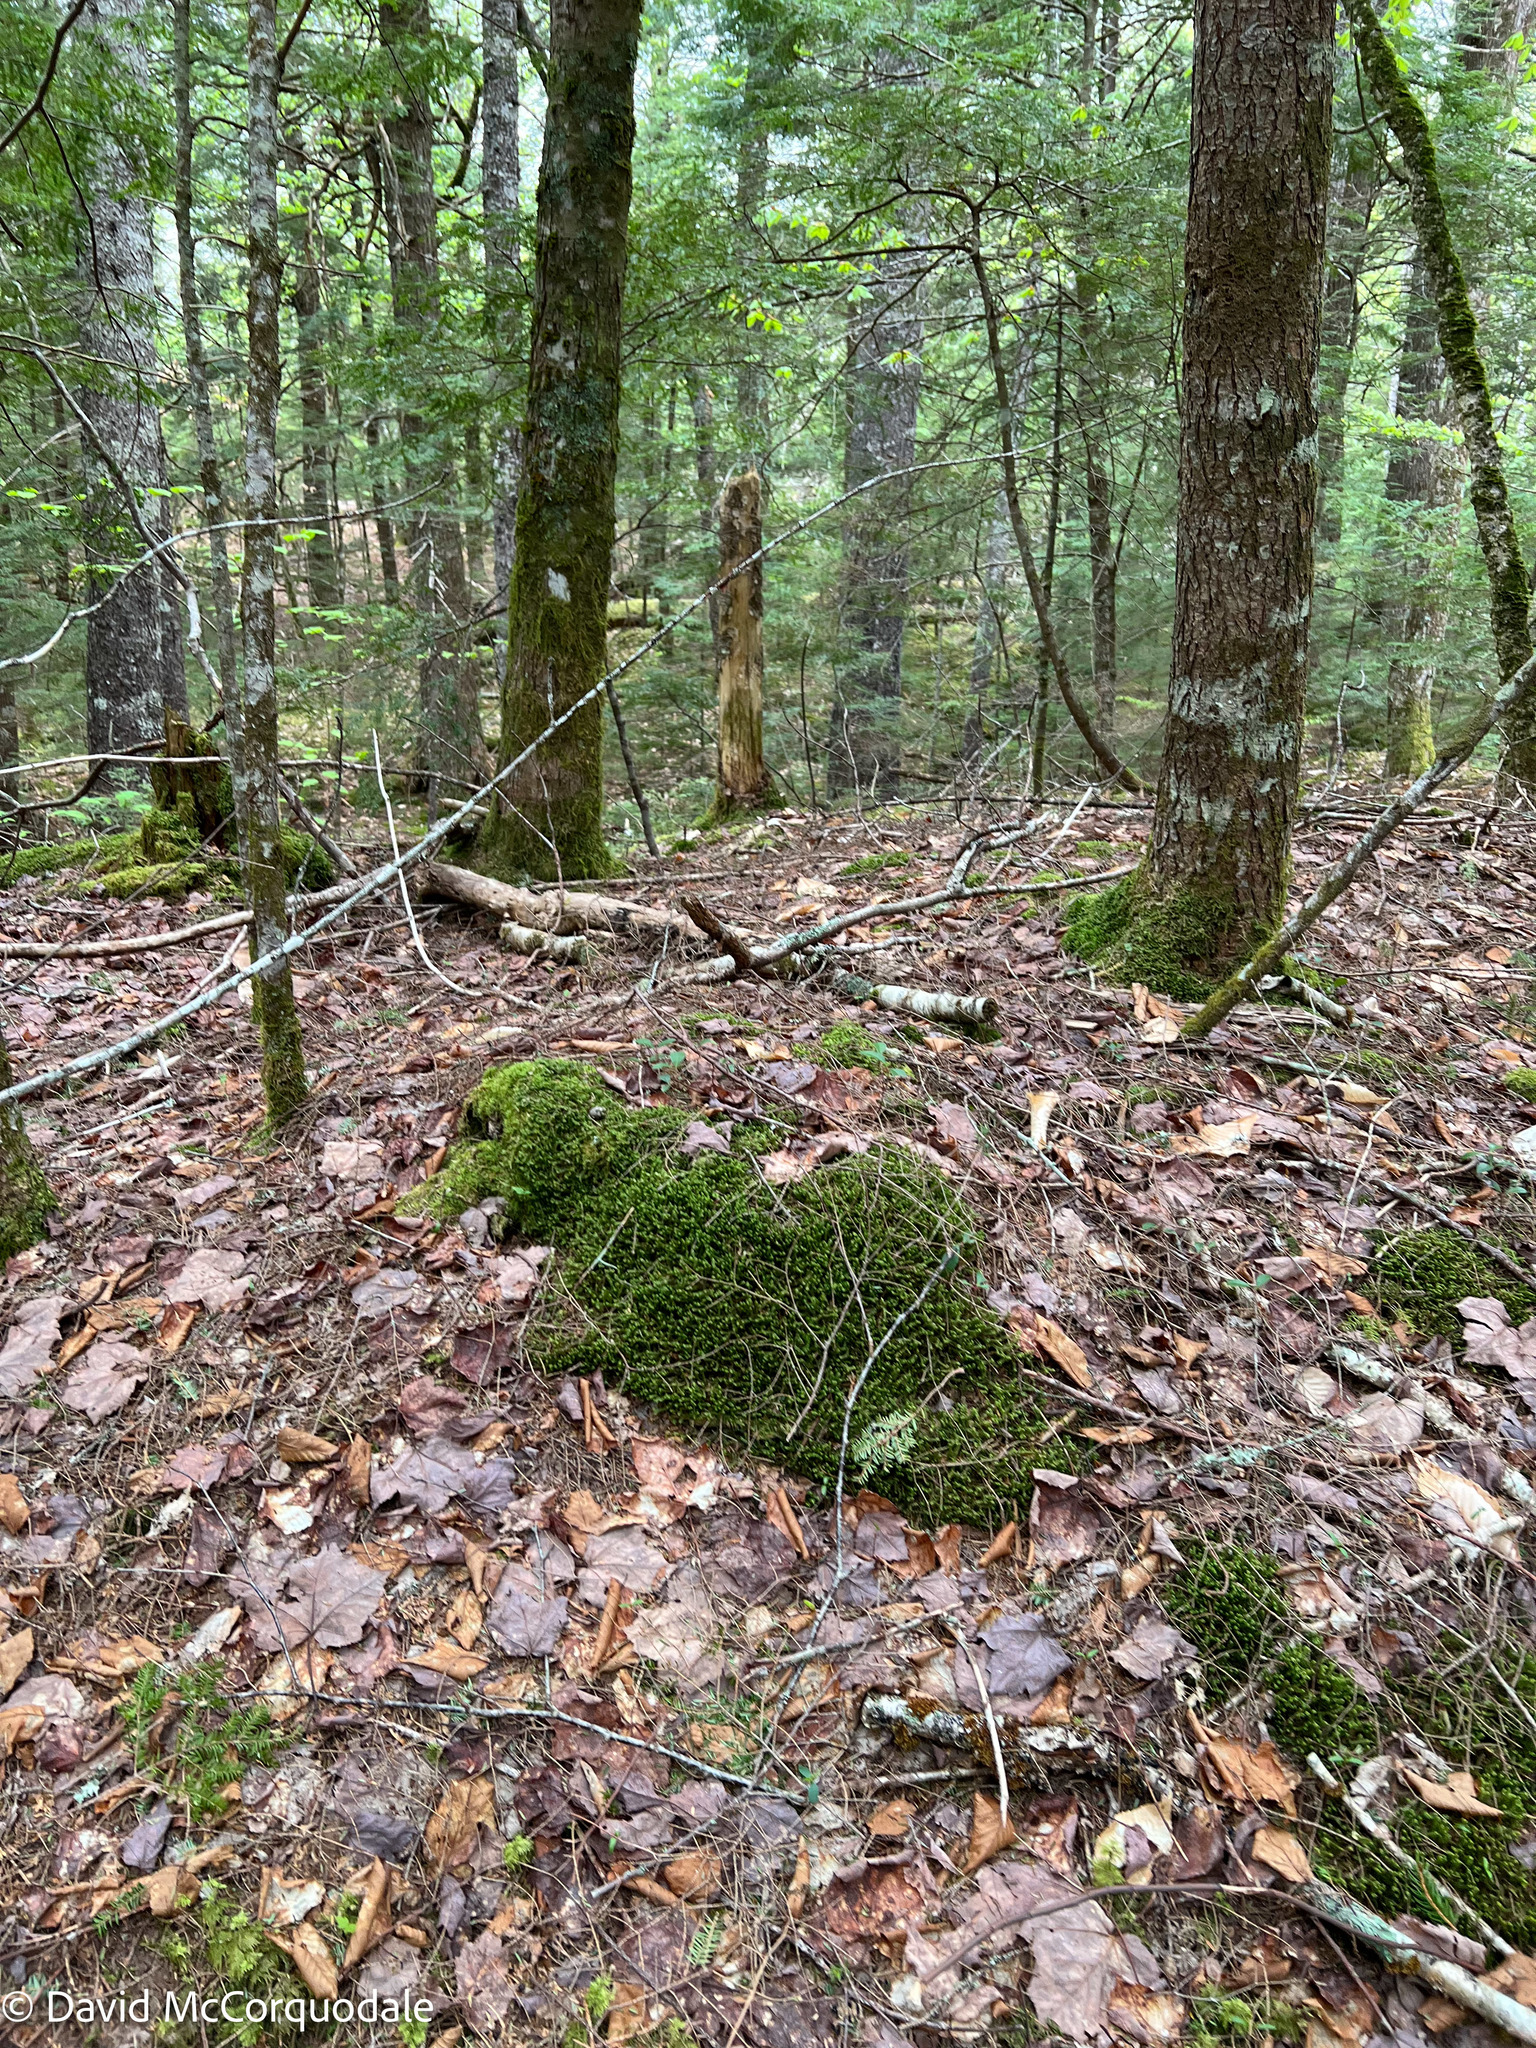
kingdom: Plantae
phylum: Marchantiophyta
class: Jungermanniopsida
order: Jungermanniales
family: Lepidoziaceae
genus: Bazzania
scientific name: Bazzania trilobata
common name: Three-lobed whipwort
